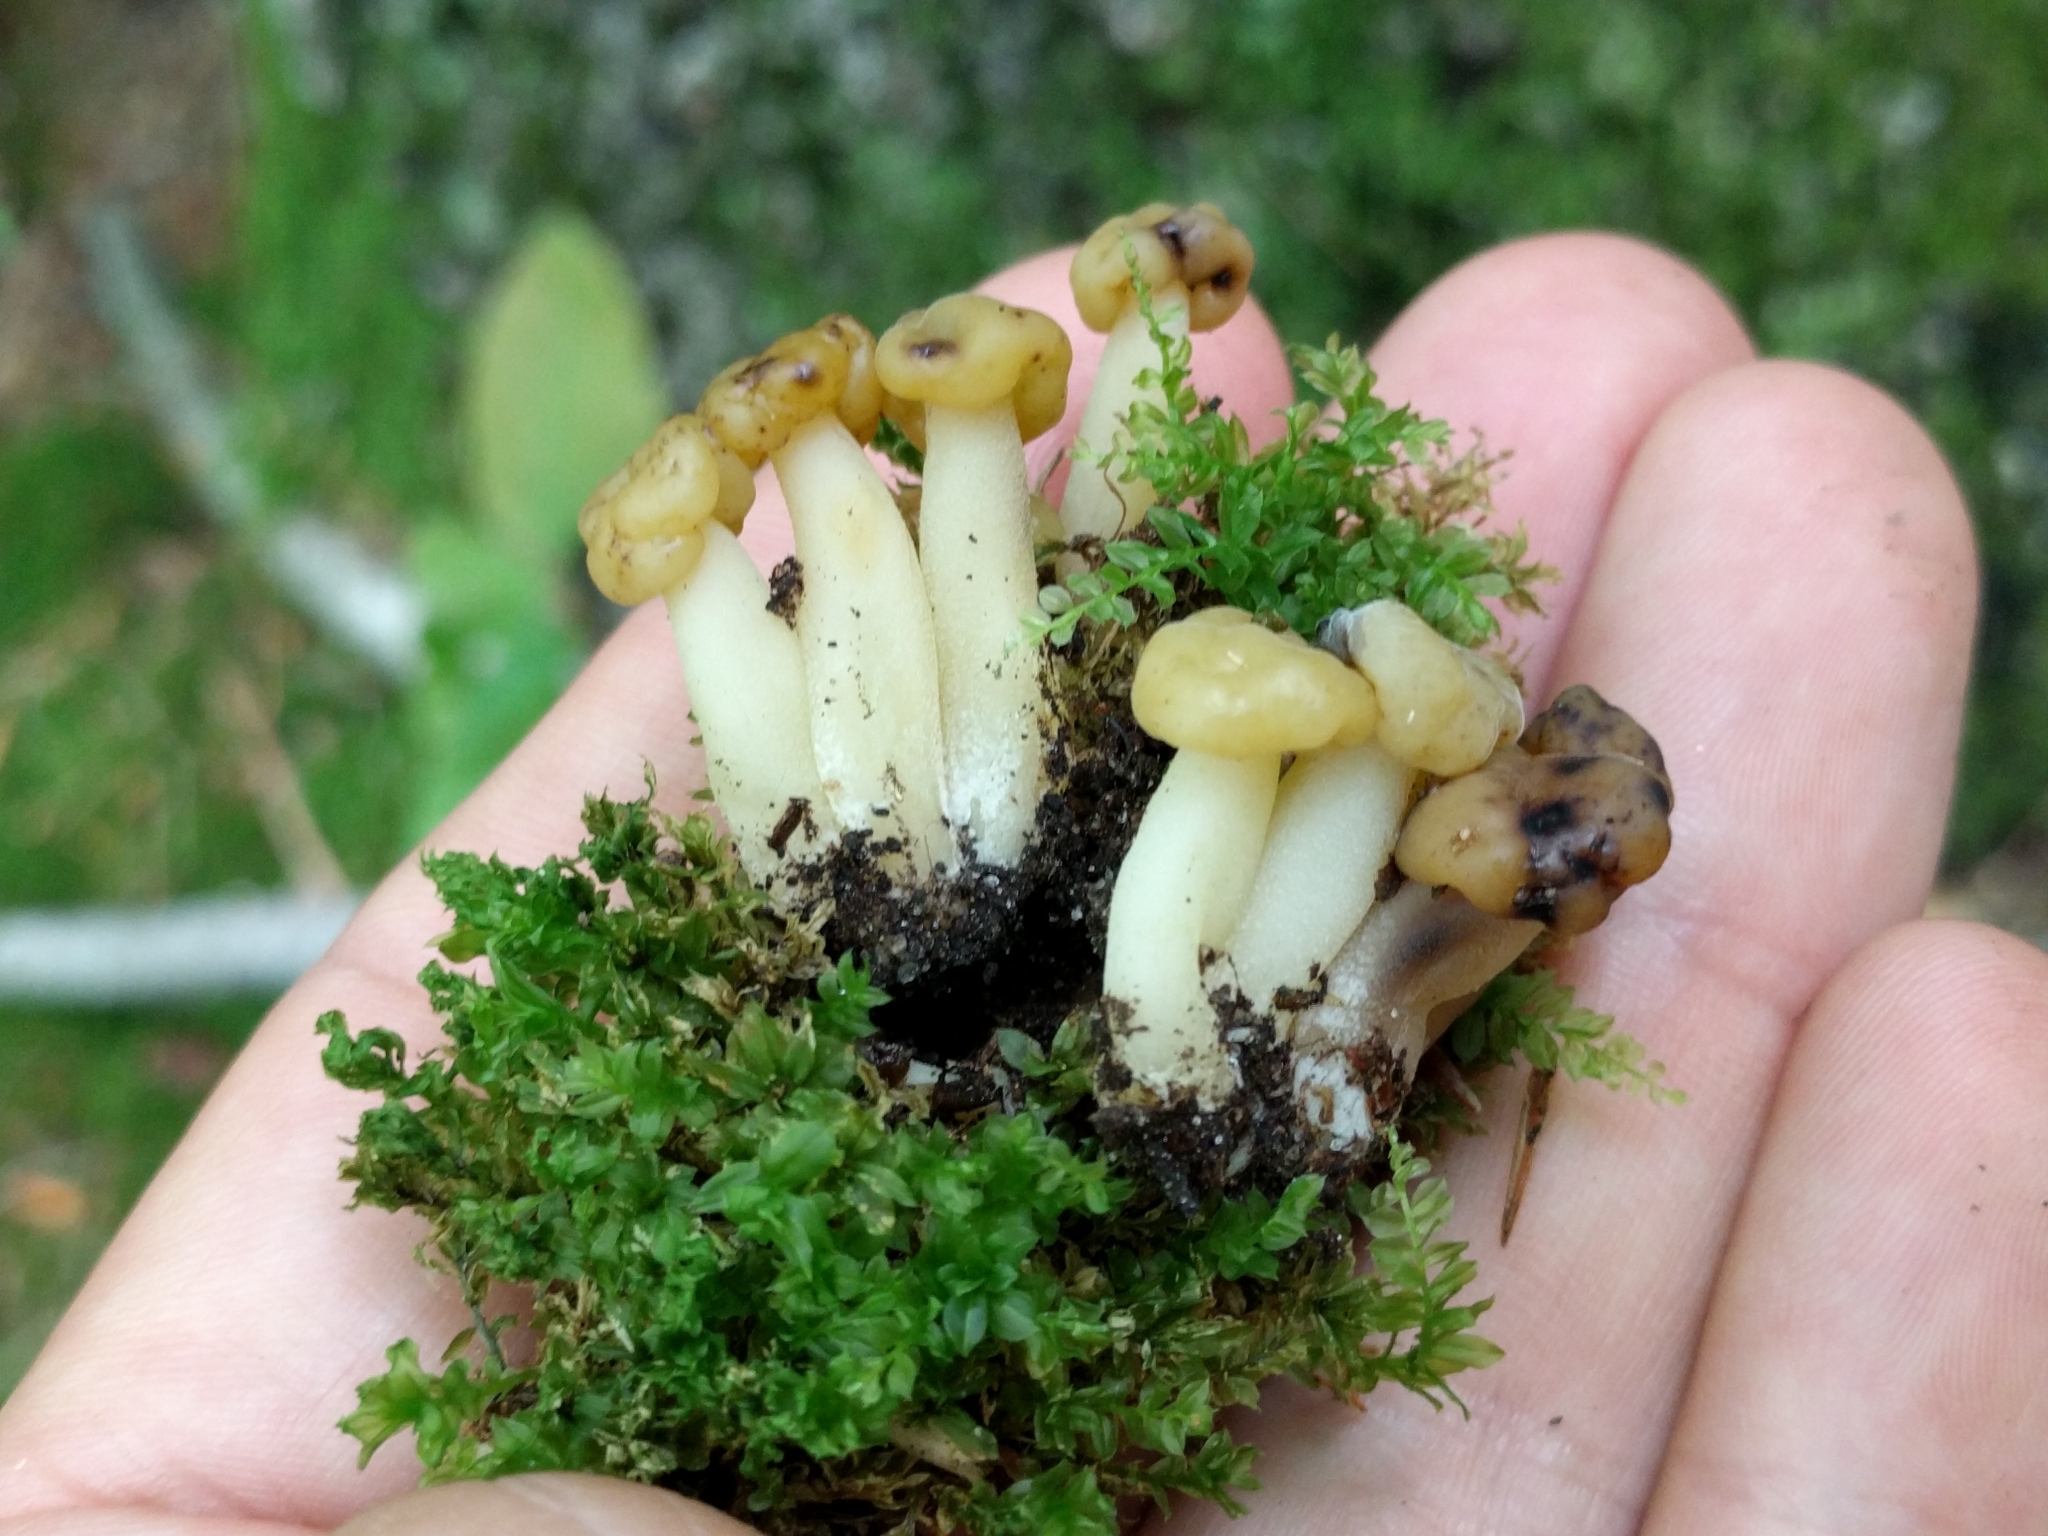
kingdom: Fungi
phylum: Ascomycota
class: Leotiomycetes
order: Leotiales
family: Leotiaceae
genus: Leotia
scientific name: Leotia lubrica
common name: Jellybaby
